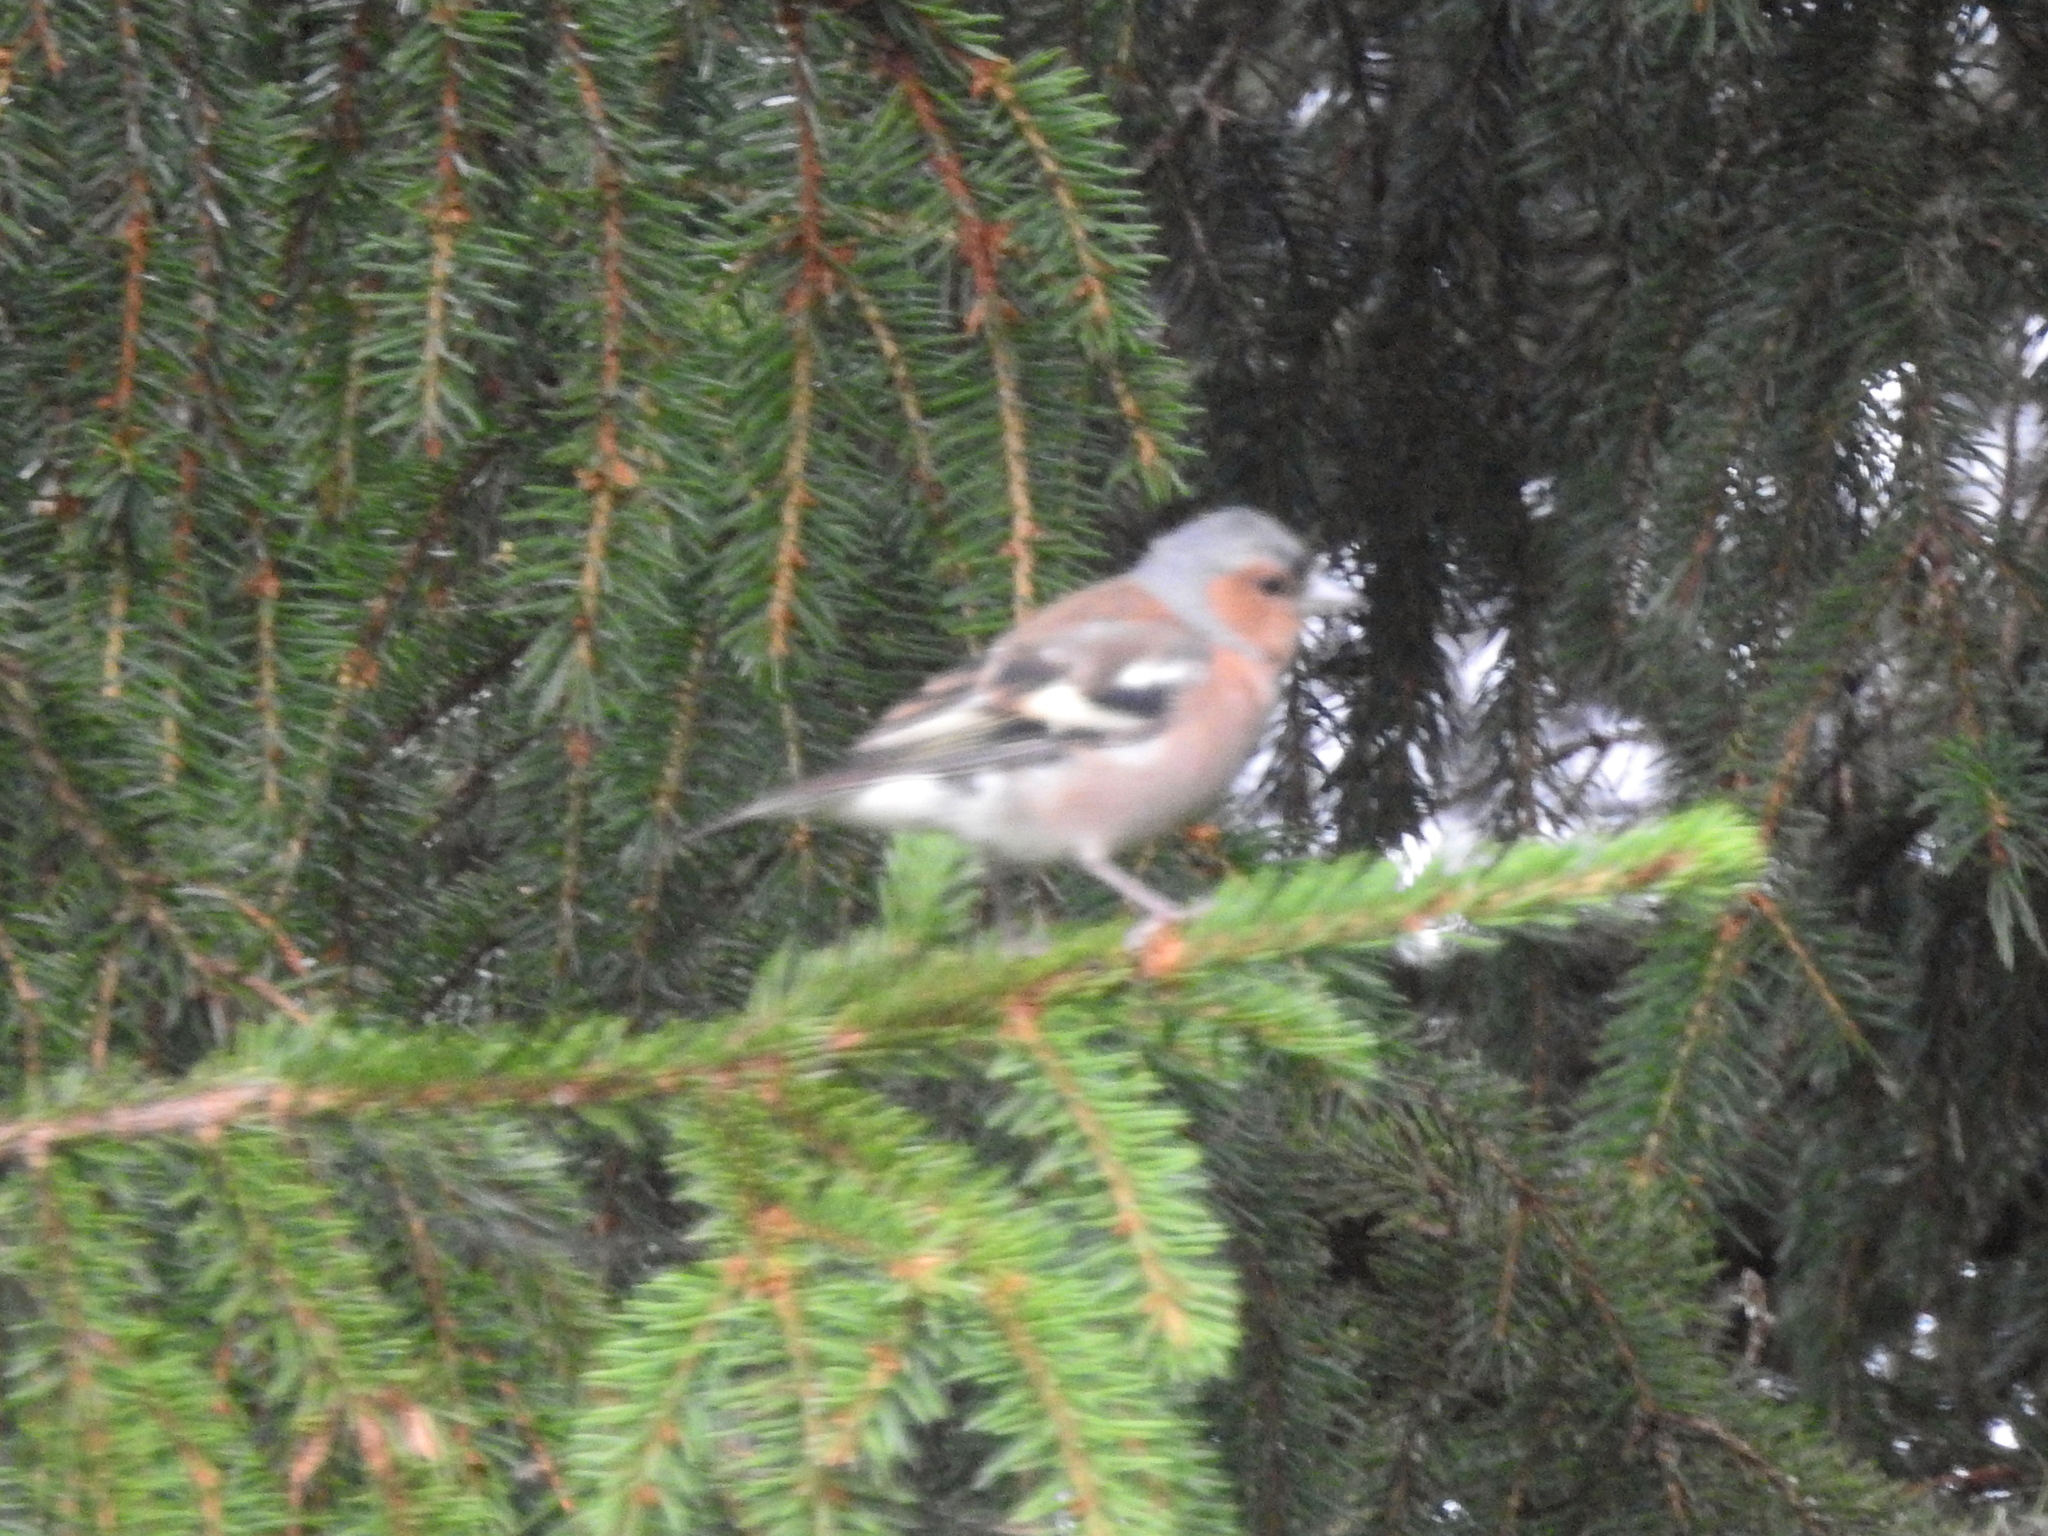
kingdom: Animalia
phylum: Chordata
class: Aves
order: Passeriformes
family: Fringillidae
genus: Fringilla
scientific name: Fringilla coelebs
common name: Common chaffinch
